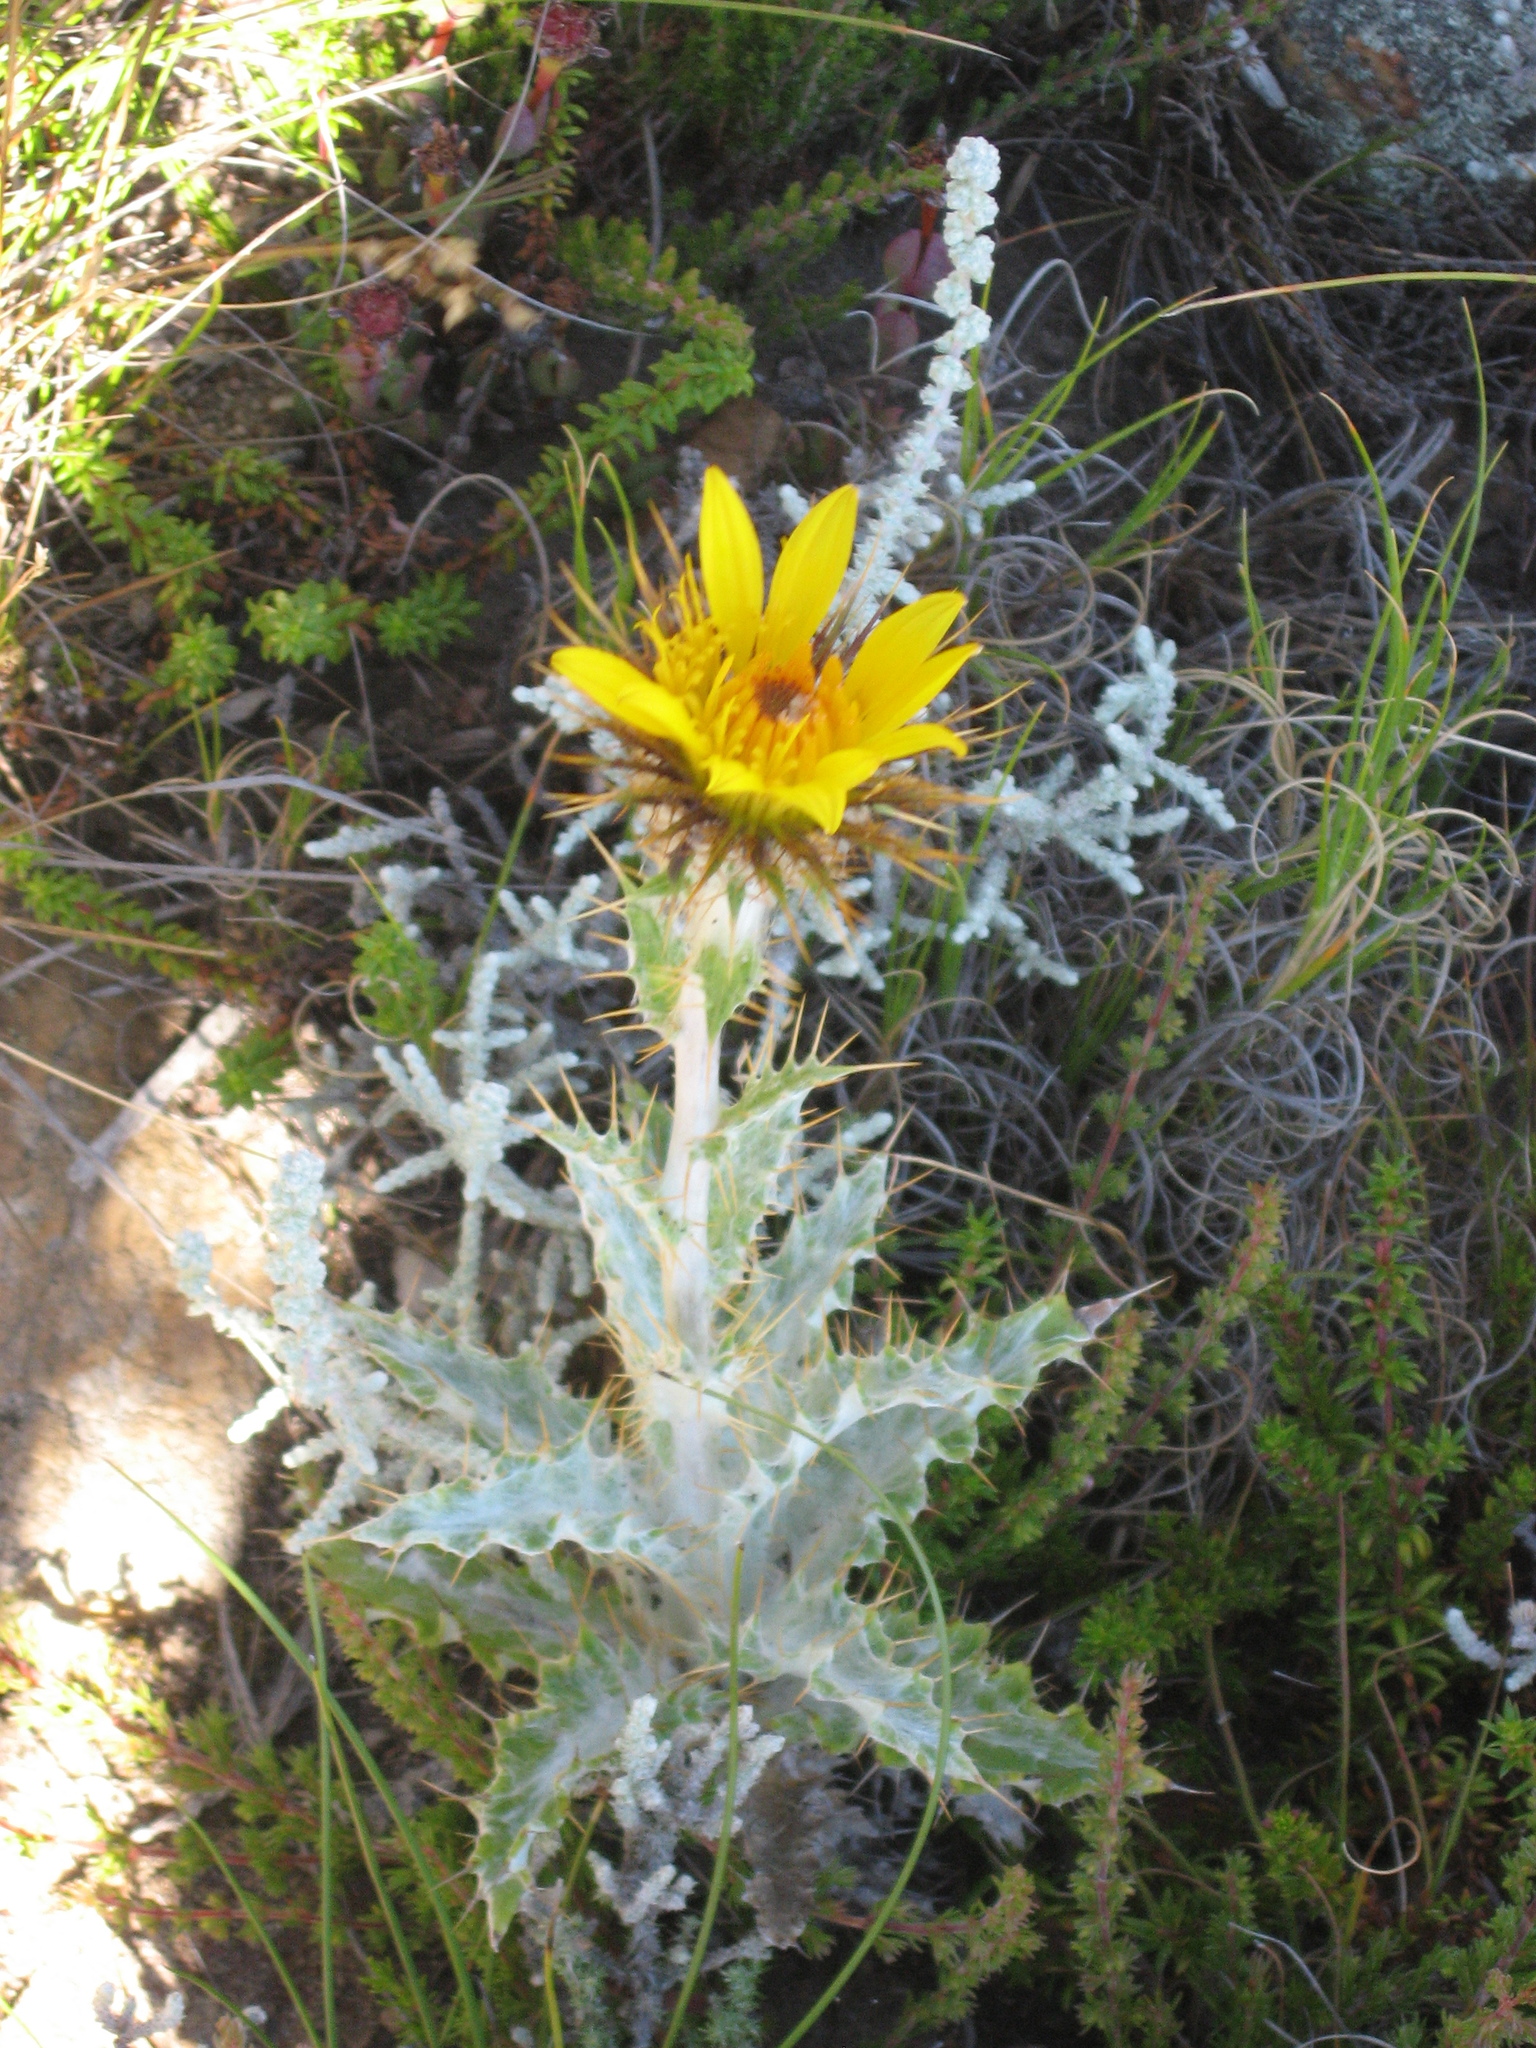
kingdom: Plantae
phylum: Tracheophyta
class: Magnoliopsida
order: Asterales
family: Asteraceae
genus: Berkheya
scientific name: Berkheya francisci
